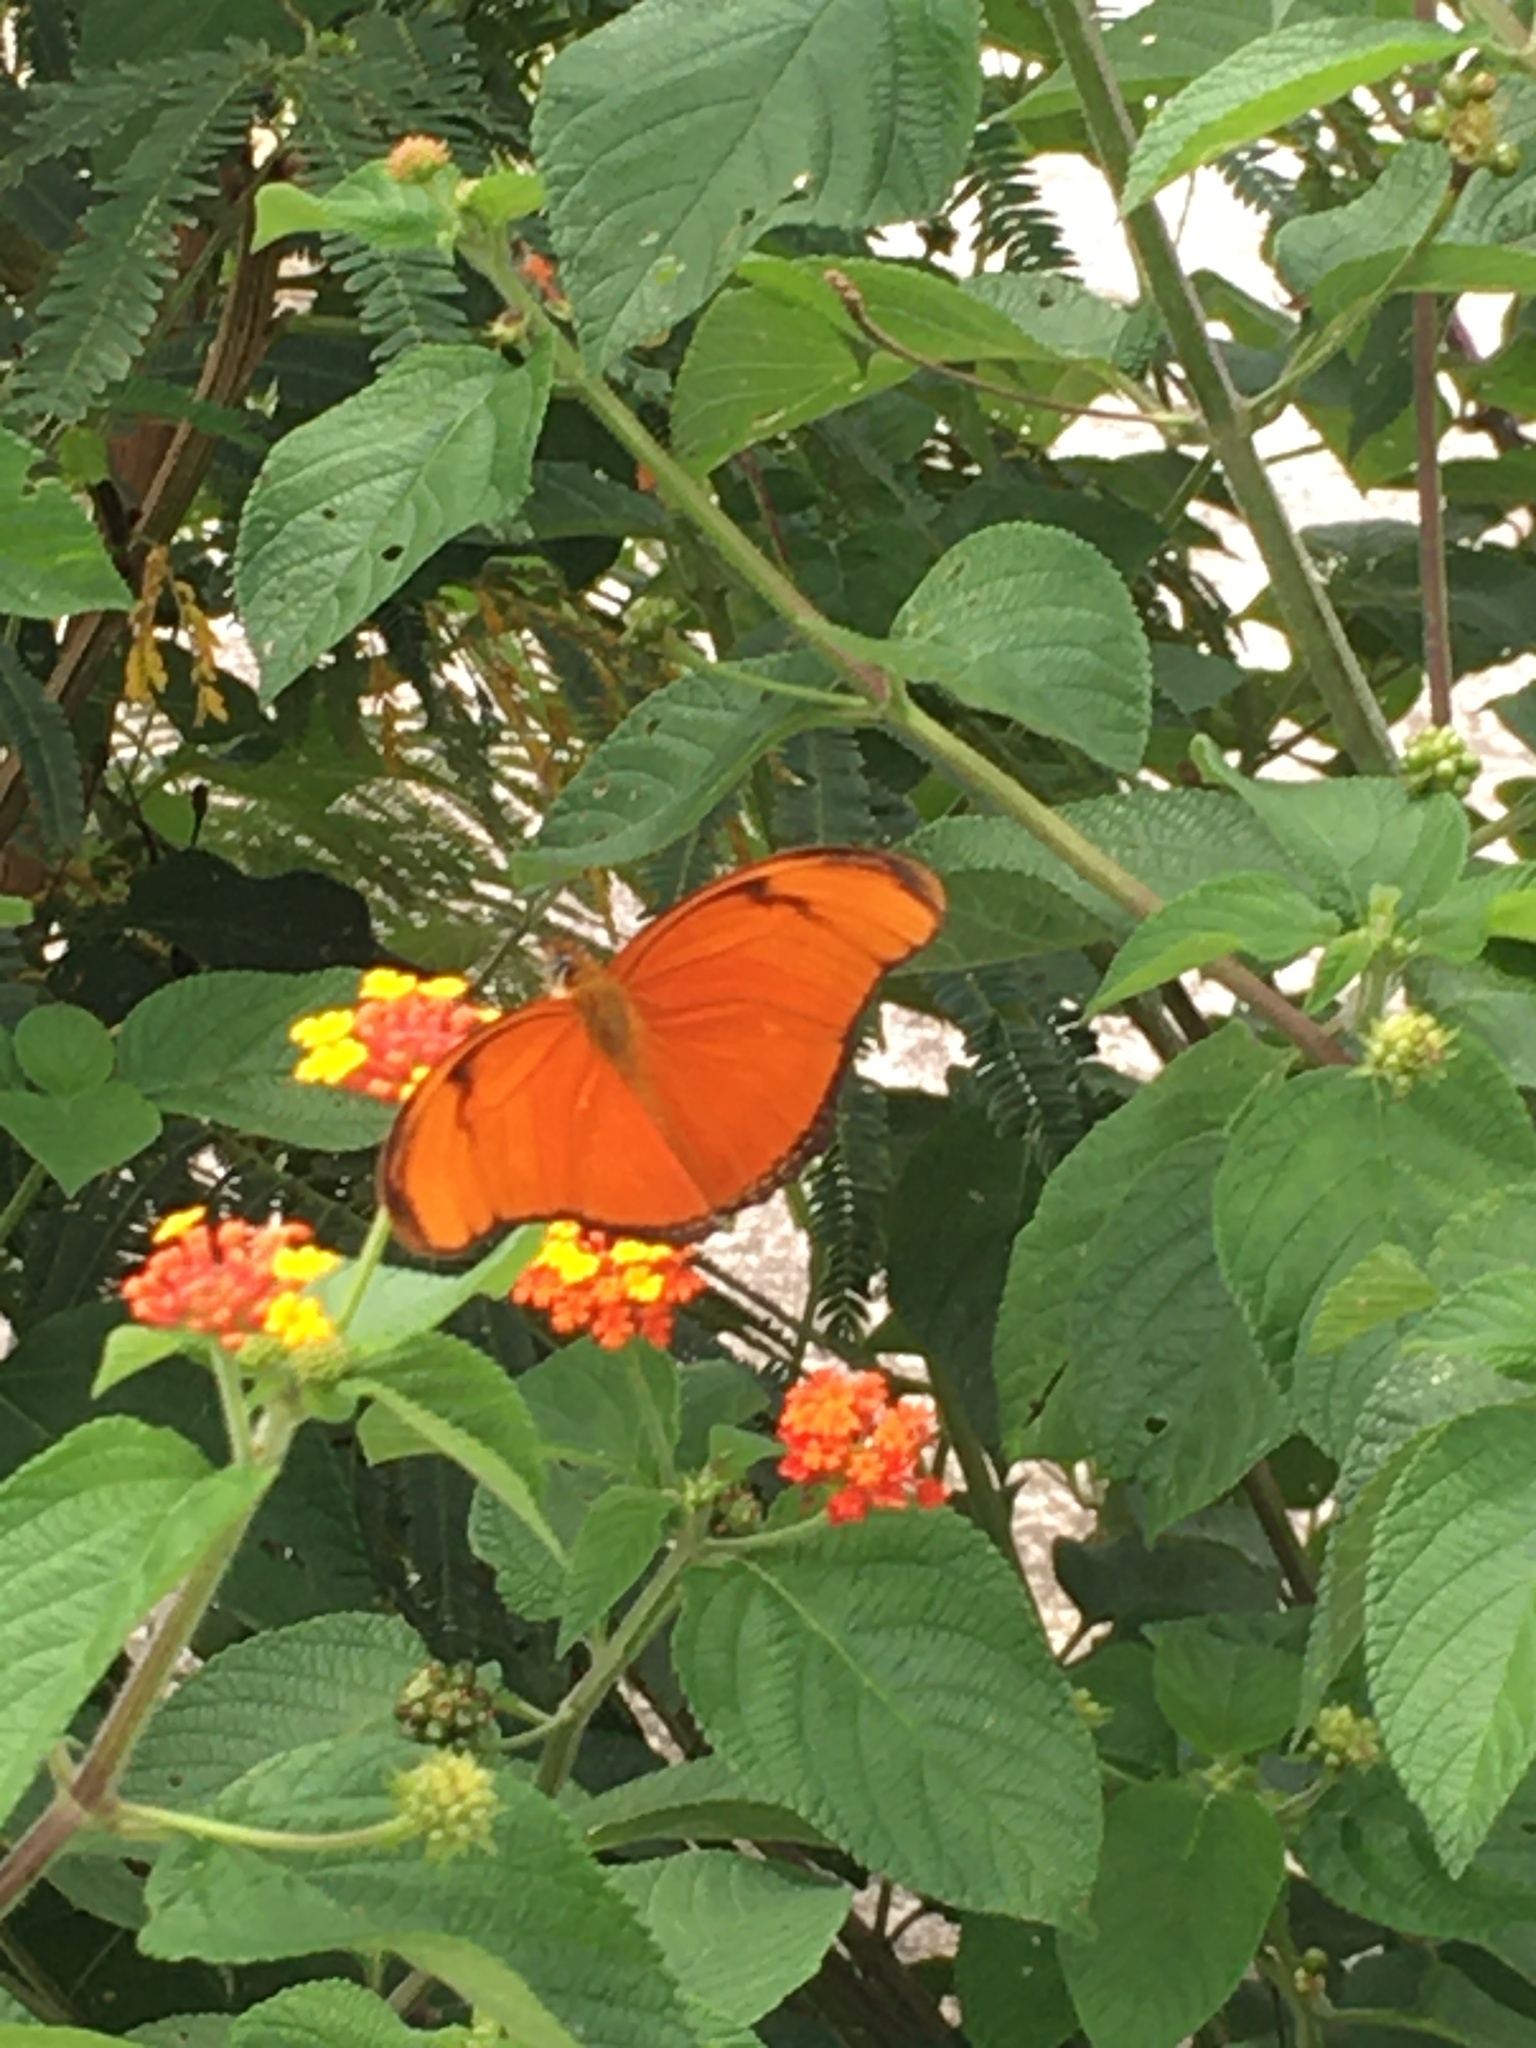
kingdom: Animalia
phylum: Arthropoda
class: Insecta
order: Lepidoptera
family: Nymphalidae
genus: Dryas
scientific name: Dryas iulia
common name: Flambeau
